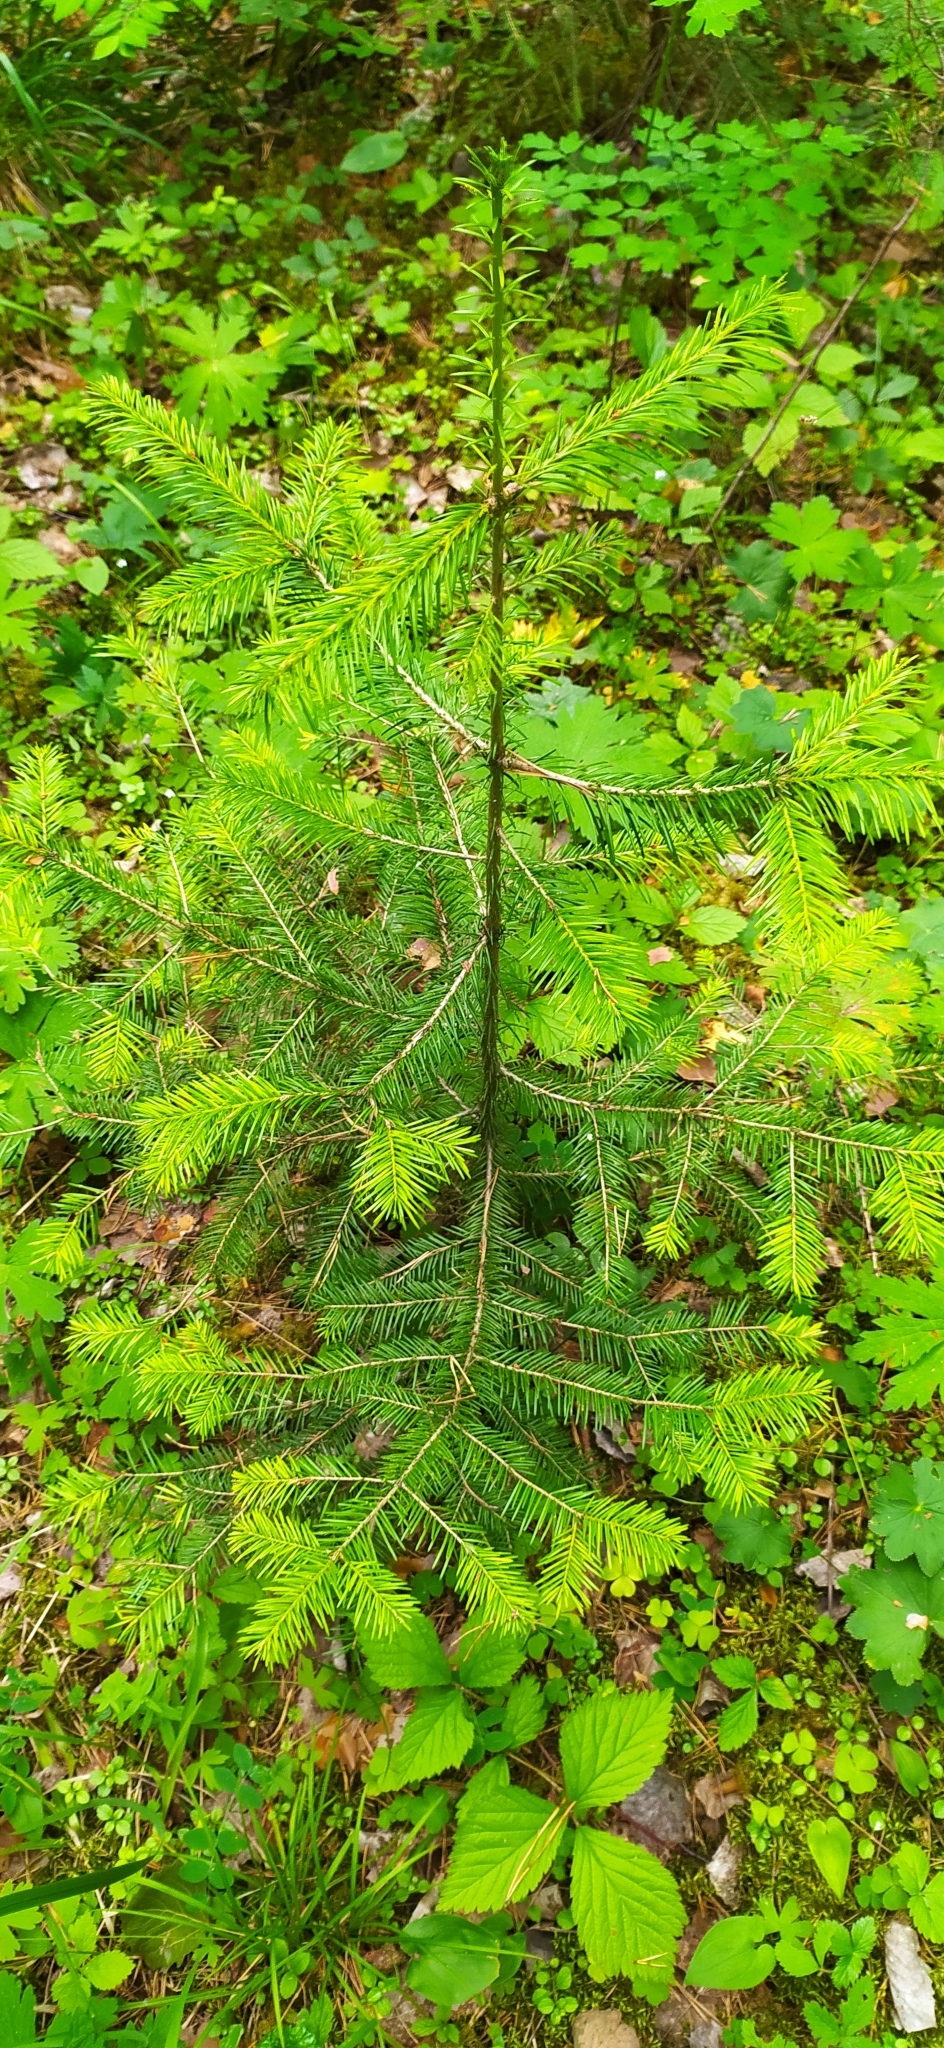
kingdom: Plantae
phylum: Tracheophyta
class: Pinopsida
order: Pinales
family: Pinaceae
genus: Abies
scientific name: Abies sibirica
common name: Siberian fir
